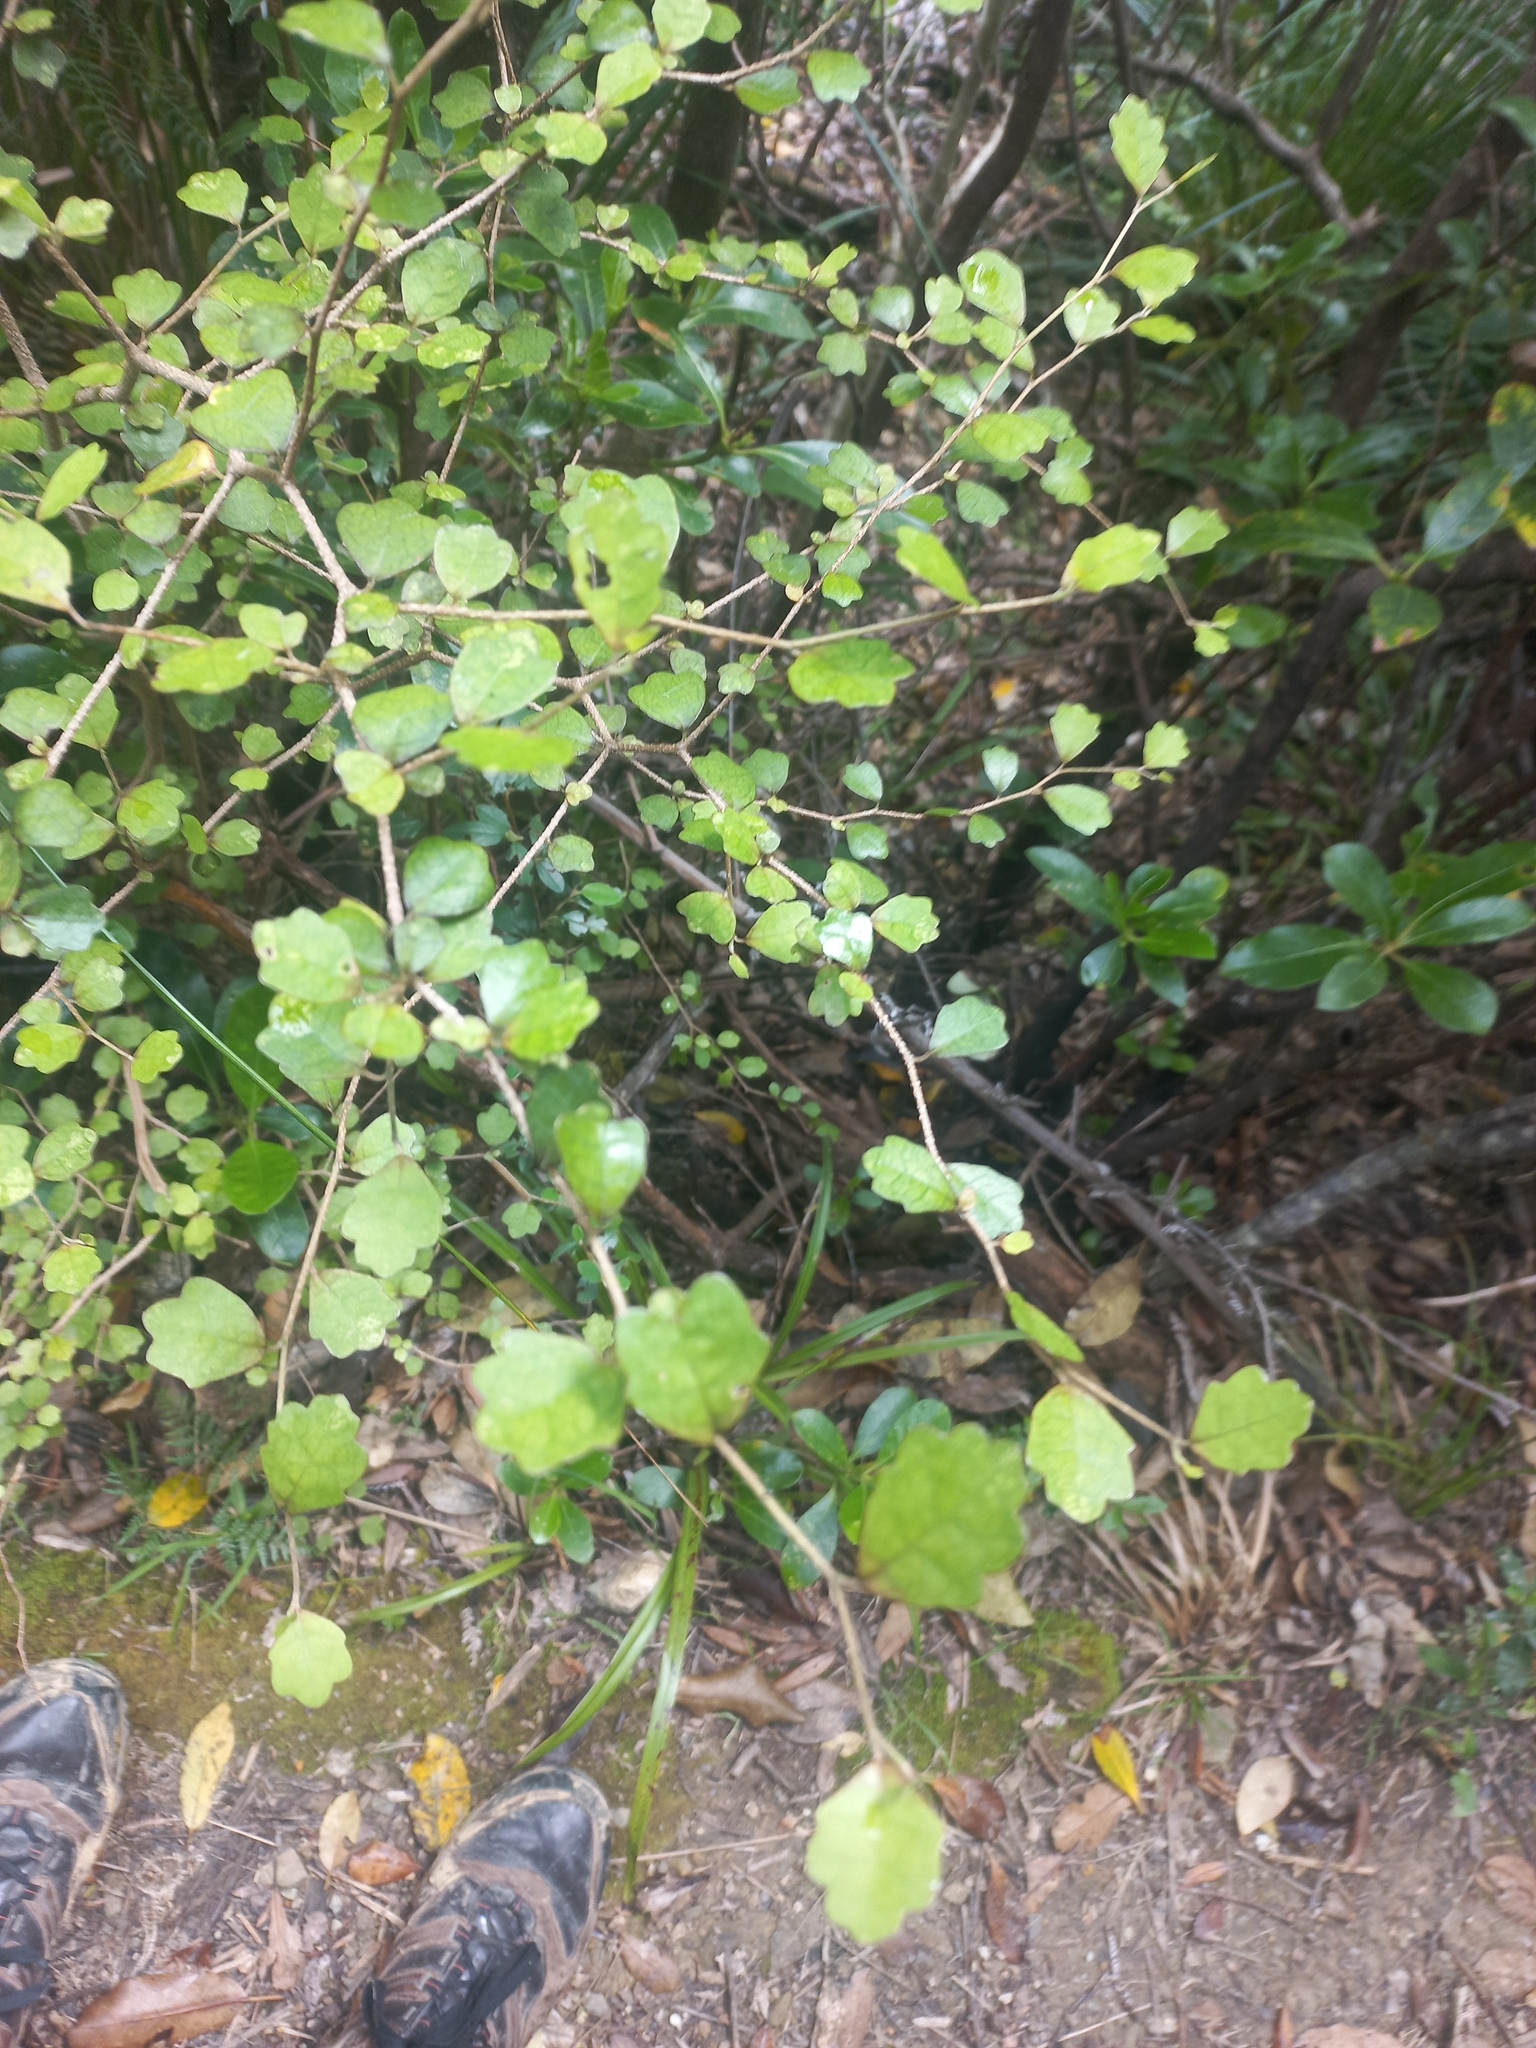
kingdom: Plantae
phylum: Tracheophyta
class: Magnoliopsida
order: Apiales
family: Pennantiaceae
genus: Pennantia
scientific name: Pennantia corymbosa
